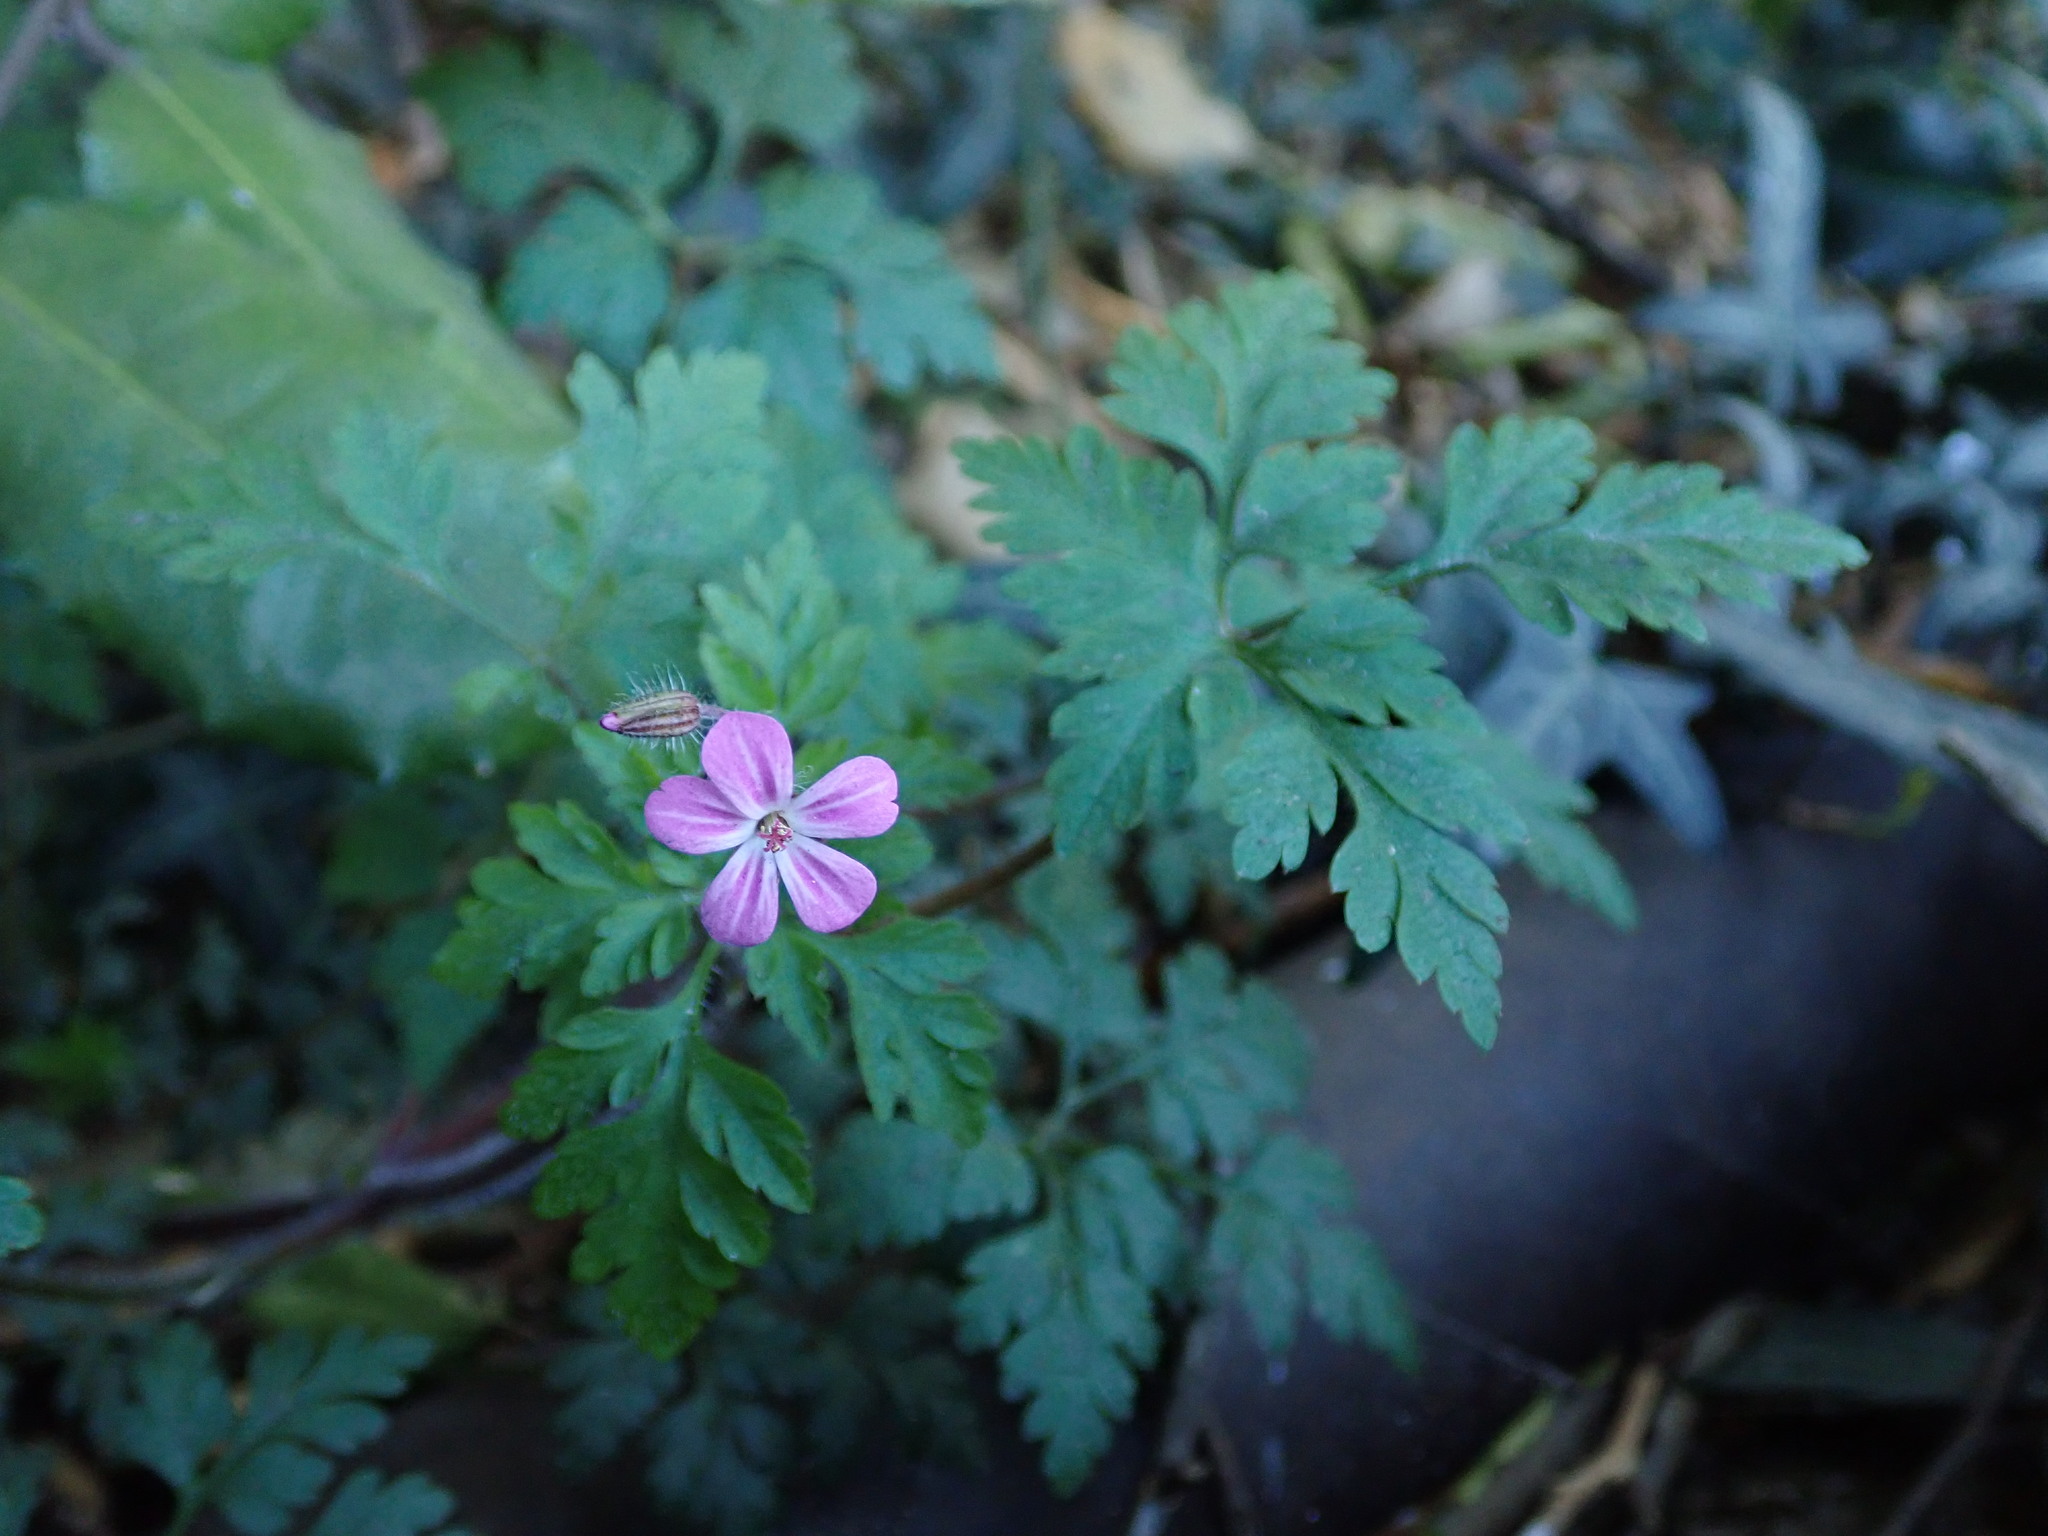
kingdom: Plantae
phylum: Tracheophyta
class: Magnoliopsida
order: Geraniales
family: Geraniaceae
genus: Geranium
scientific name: Geranium robertianum
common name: Herb-robert
